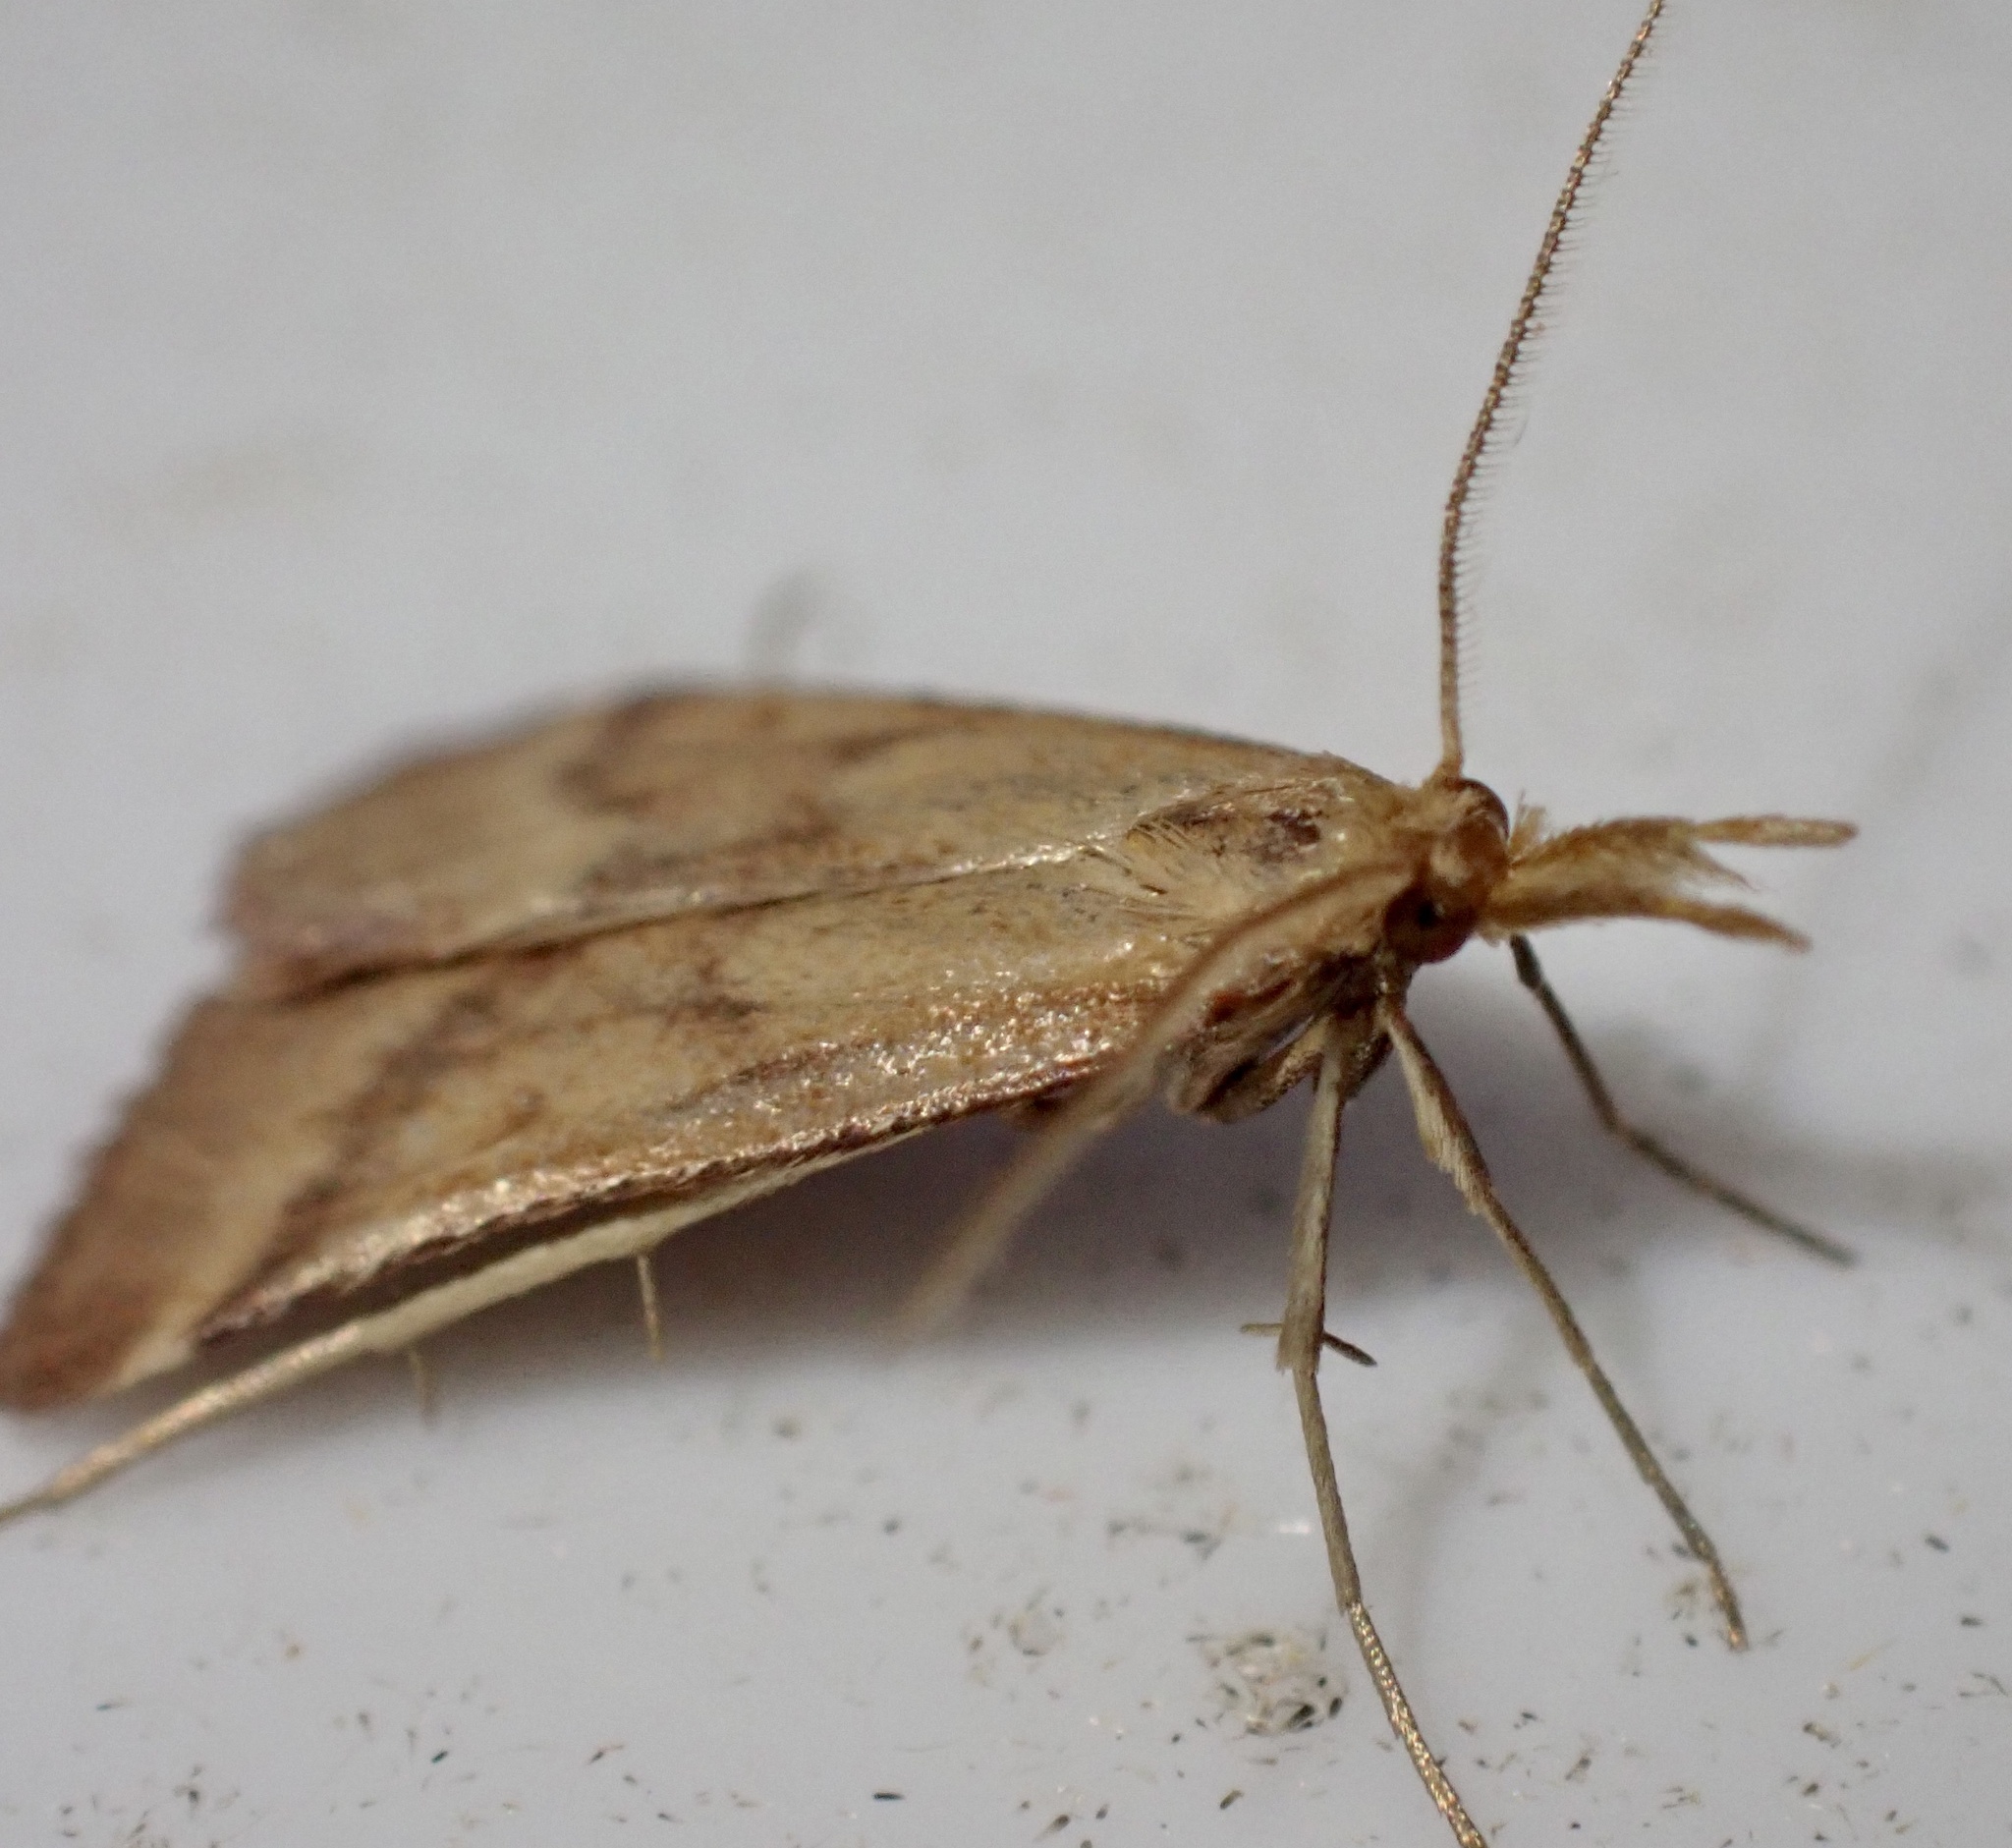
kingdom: Animalia
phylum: Arthropoda
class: Insecta
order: Lepidoptera
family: Pyralidae
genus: Synaphe
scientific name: Synaphe punctalis
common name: Long-legged tabby
